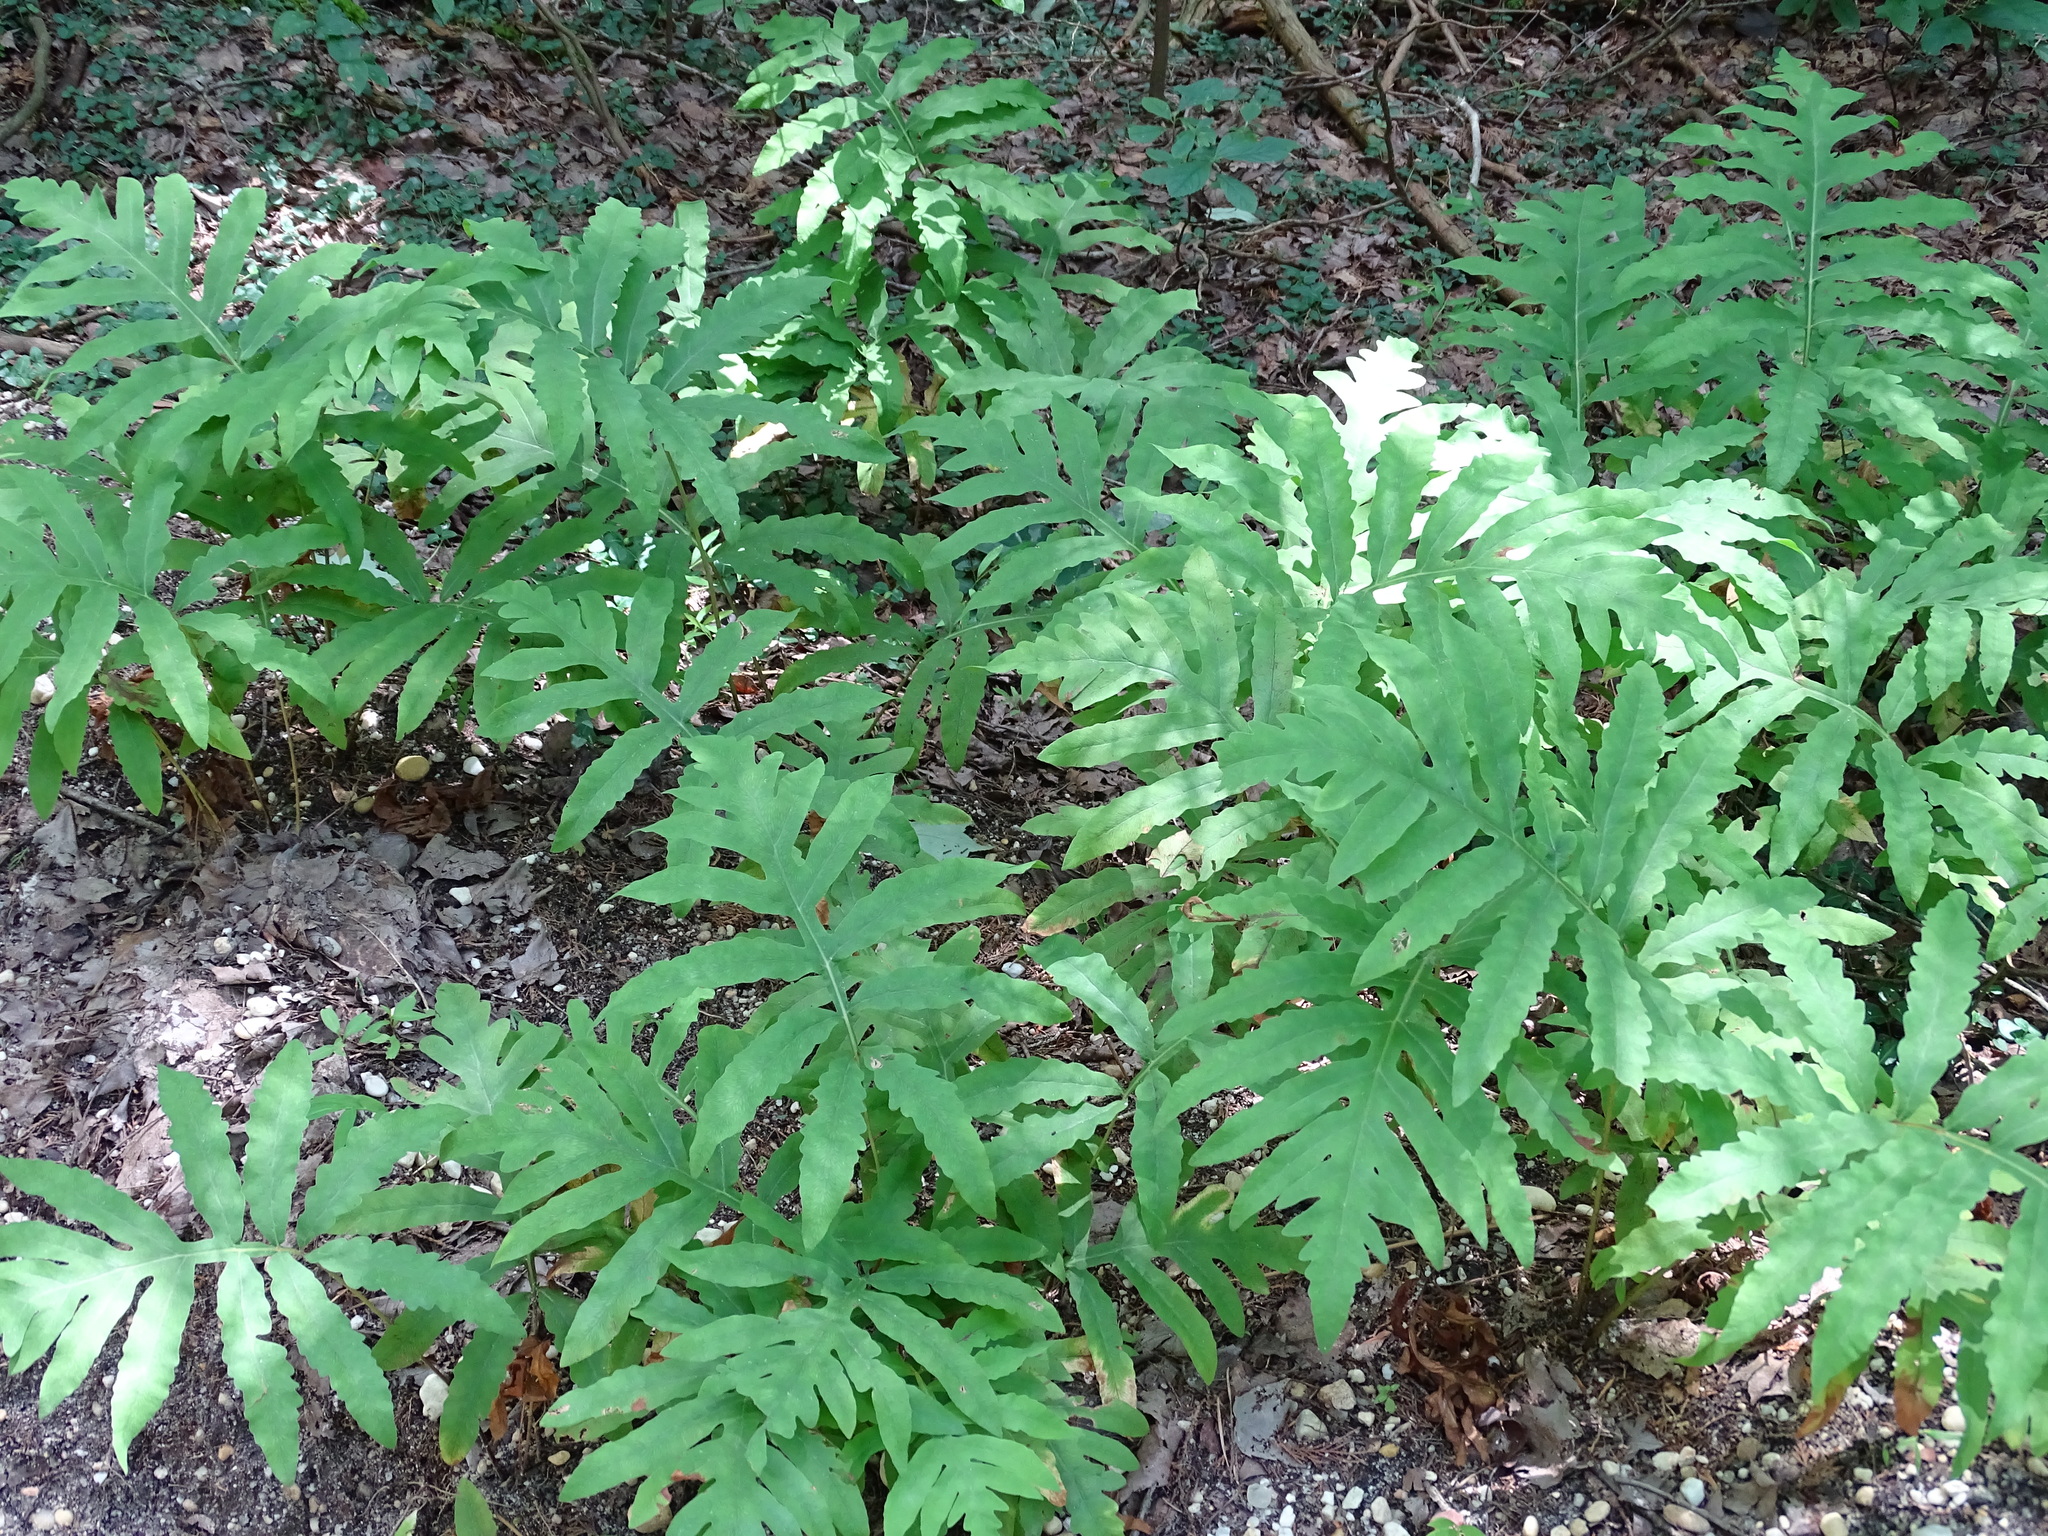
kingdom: Plantae
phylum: Tracheophyta
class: Polypodiopsida
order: Polypodiales
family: Onocleaceae
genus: Onoclea
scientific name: Onoclea sensibilis
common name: Sensitive fern
